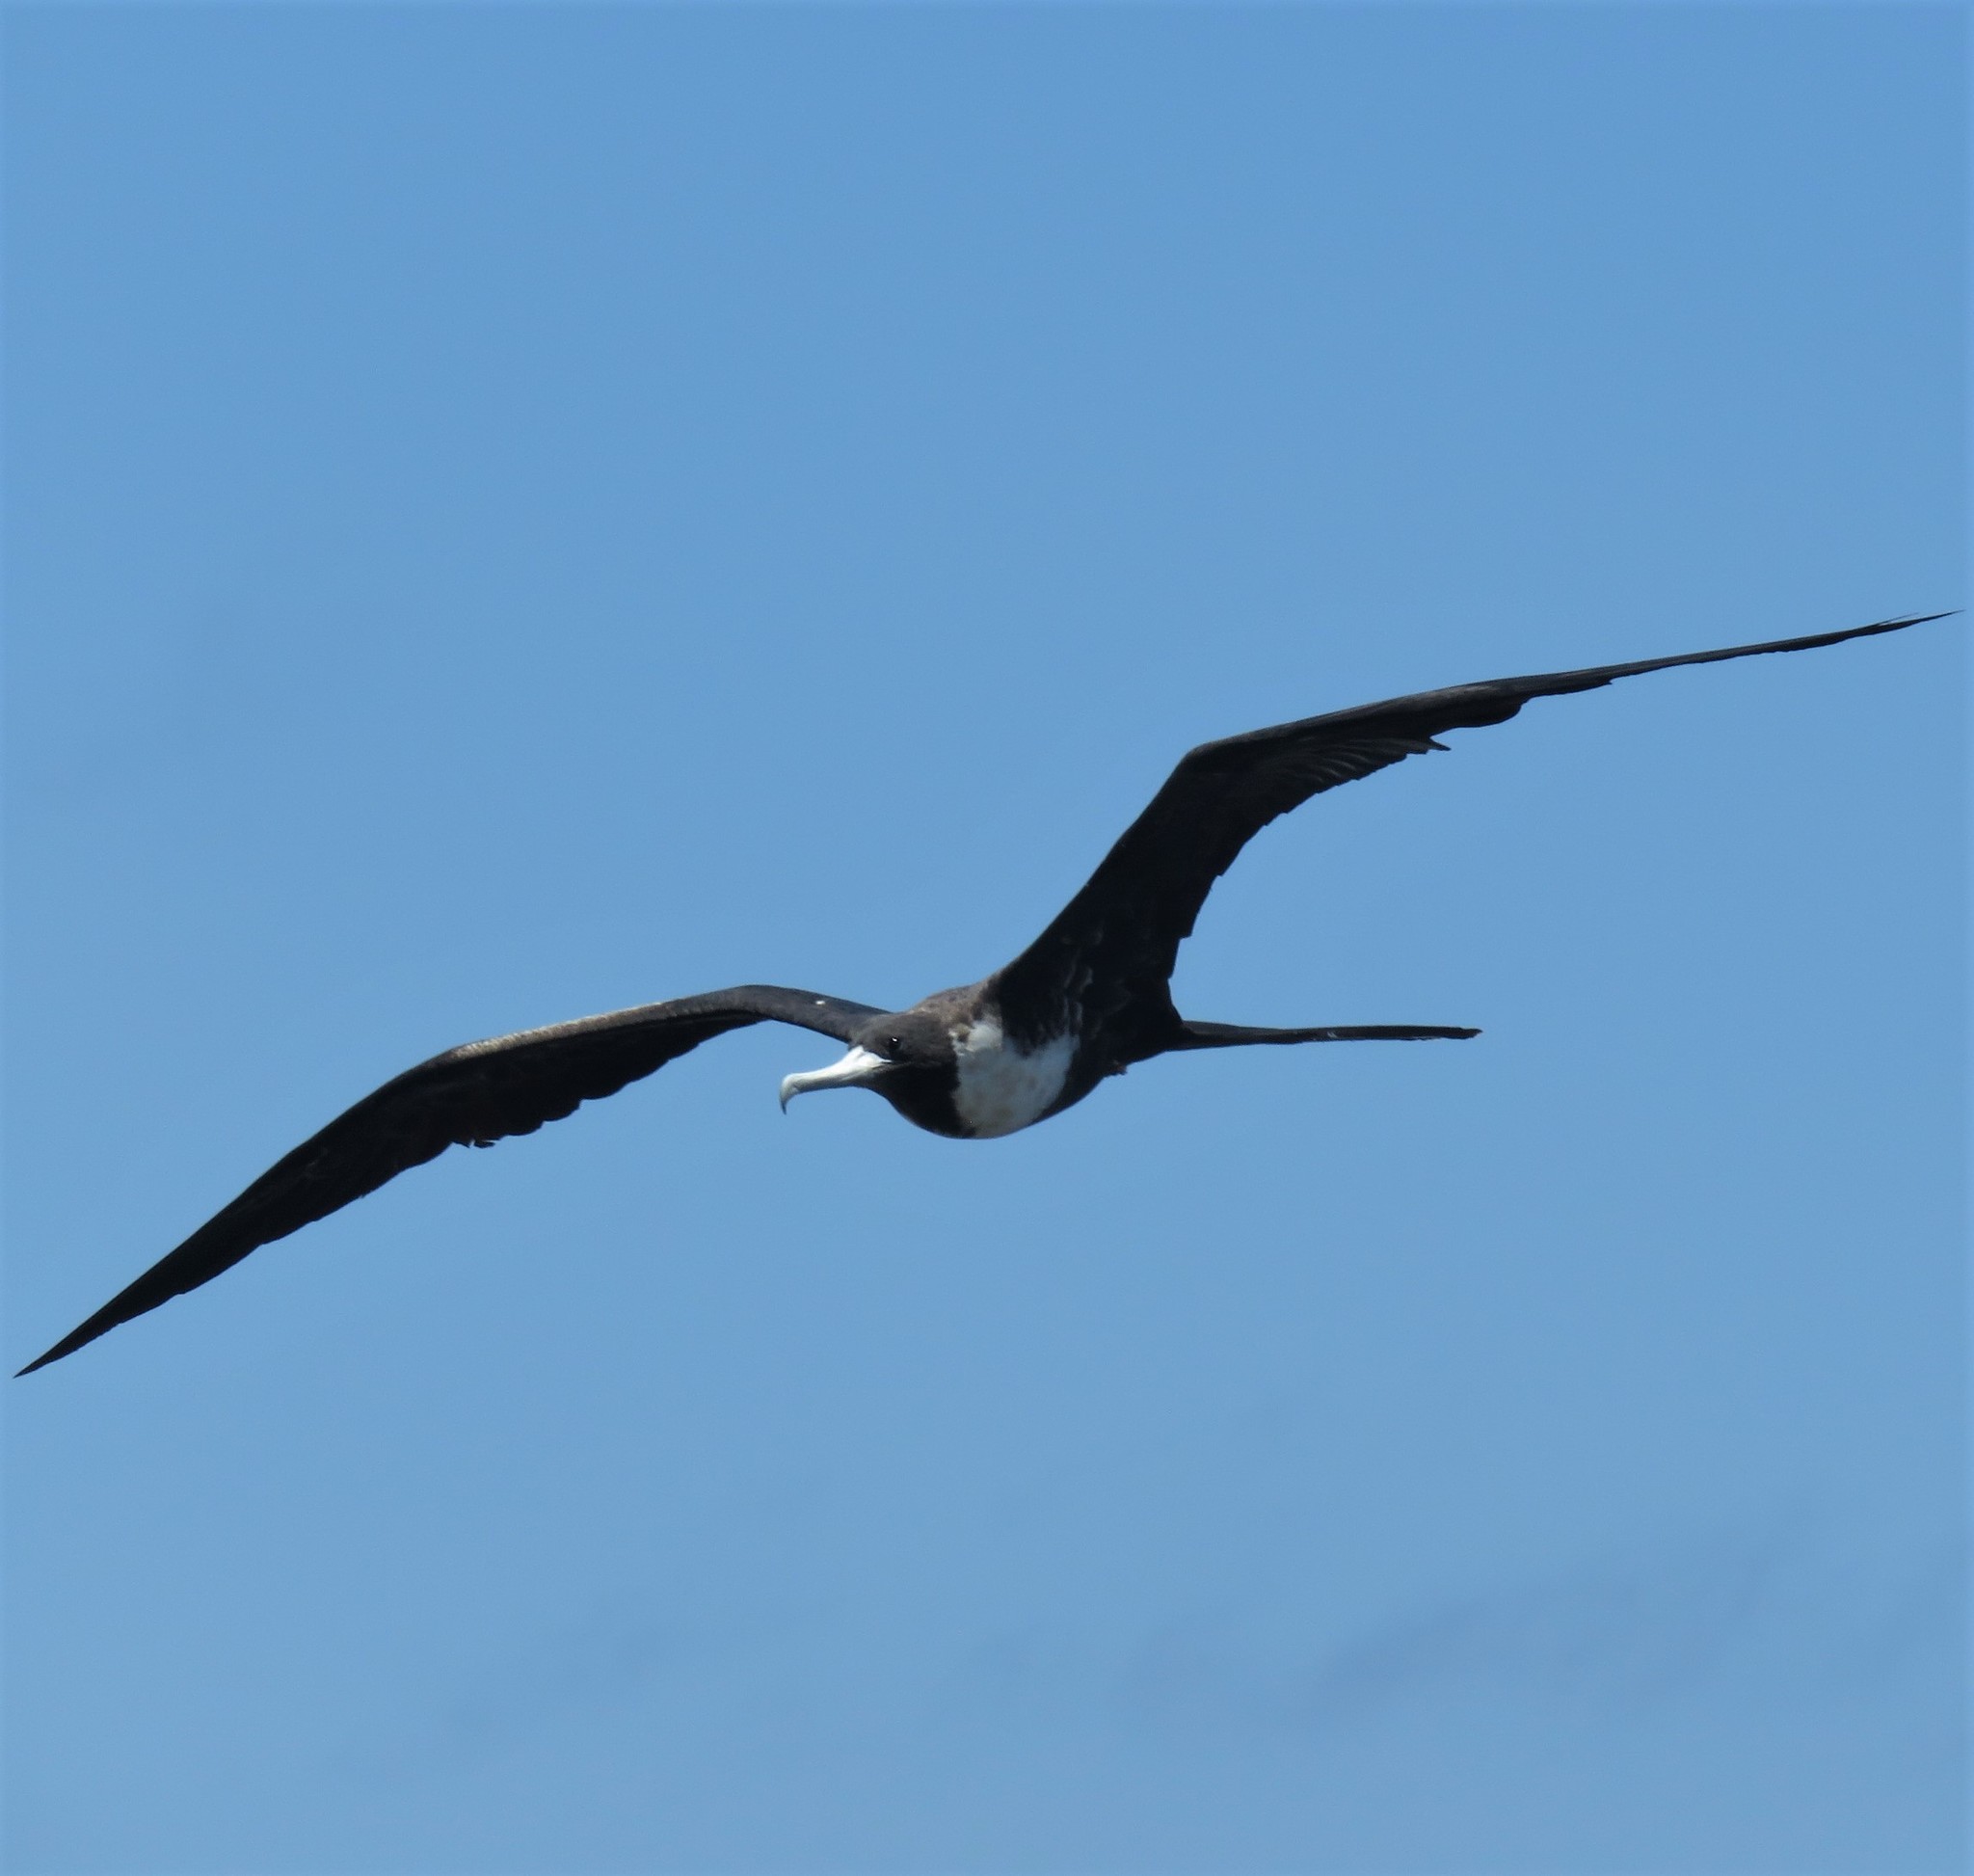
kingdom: Animalia
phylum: Chordata
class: Aves
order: Suliformes
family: Fregatidae
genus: Fregata
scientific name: Fregata magnificens
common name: Magnificent frigatebird
